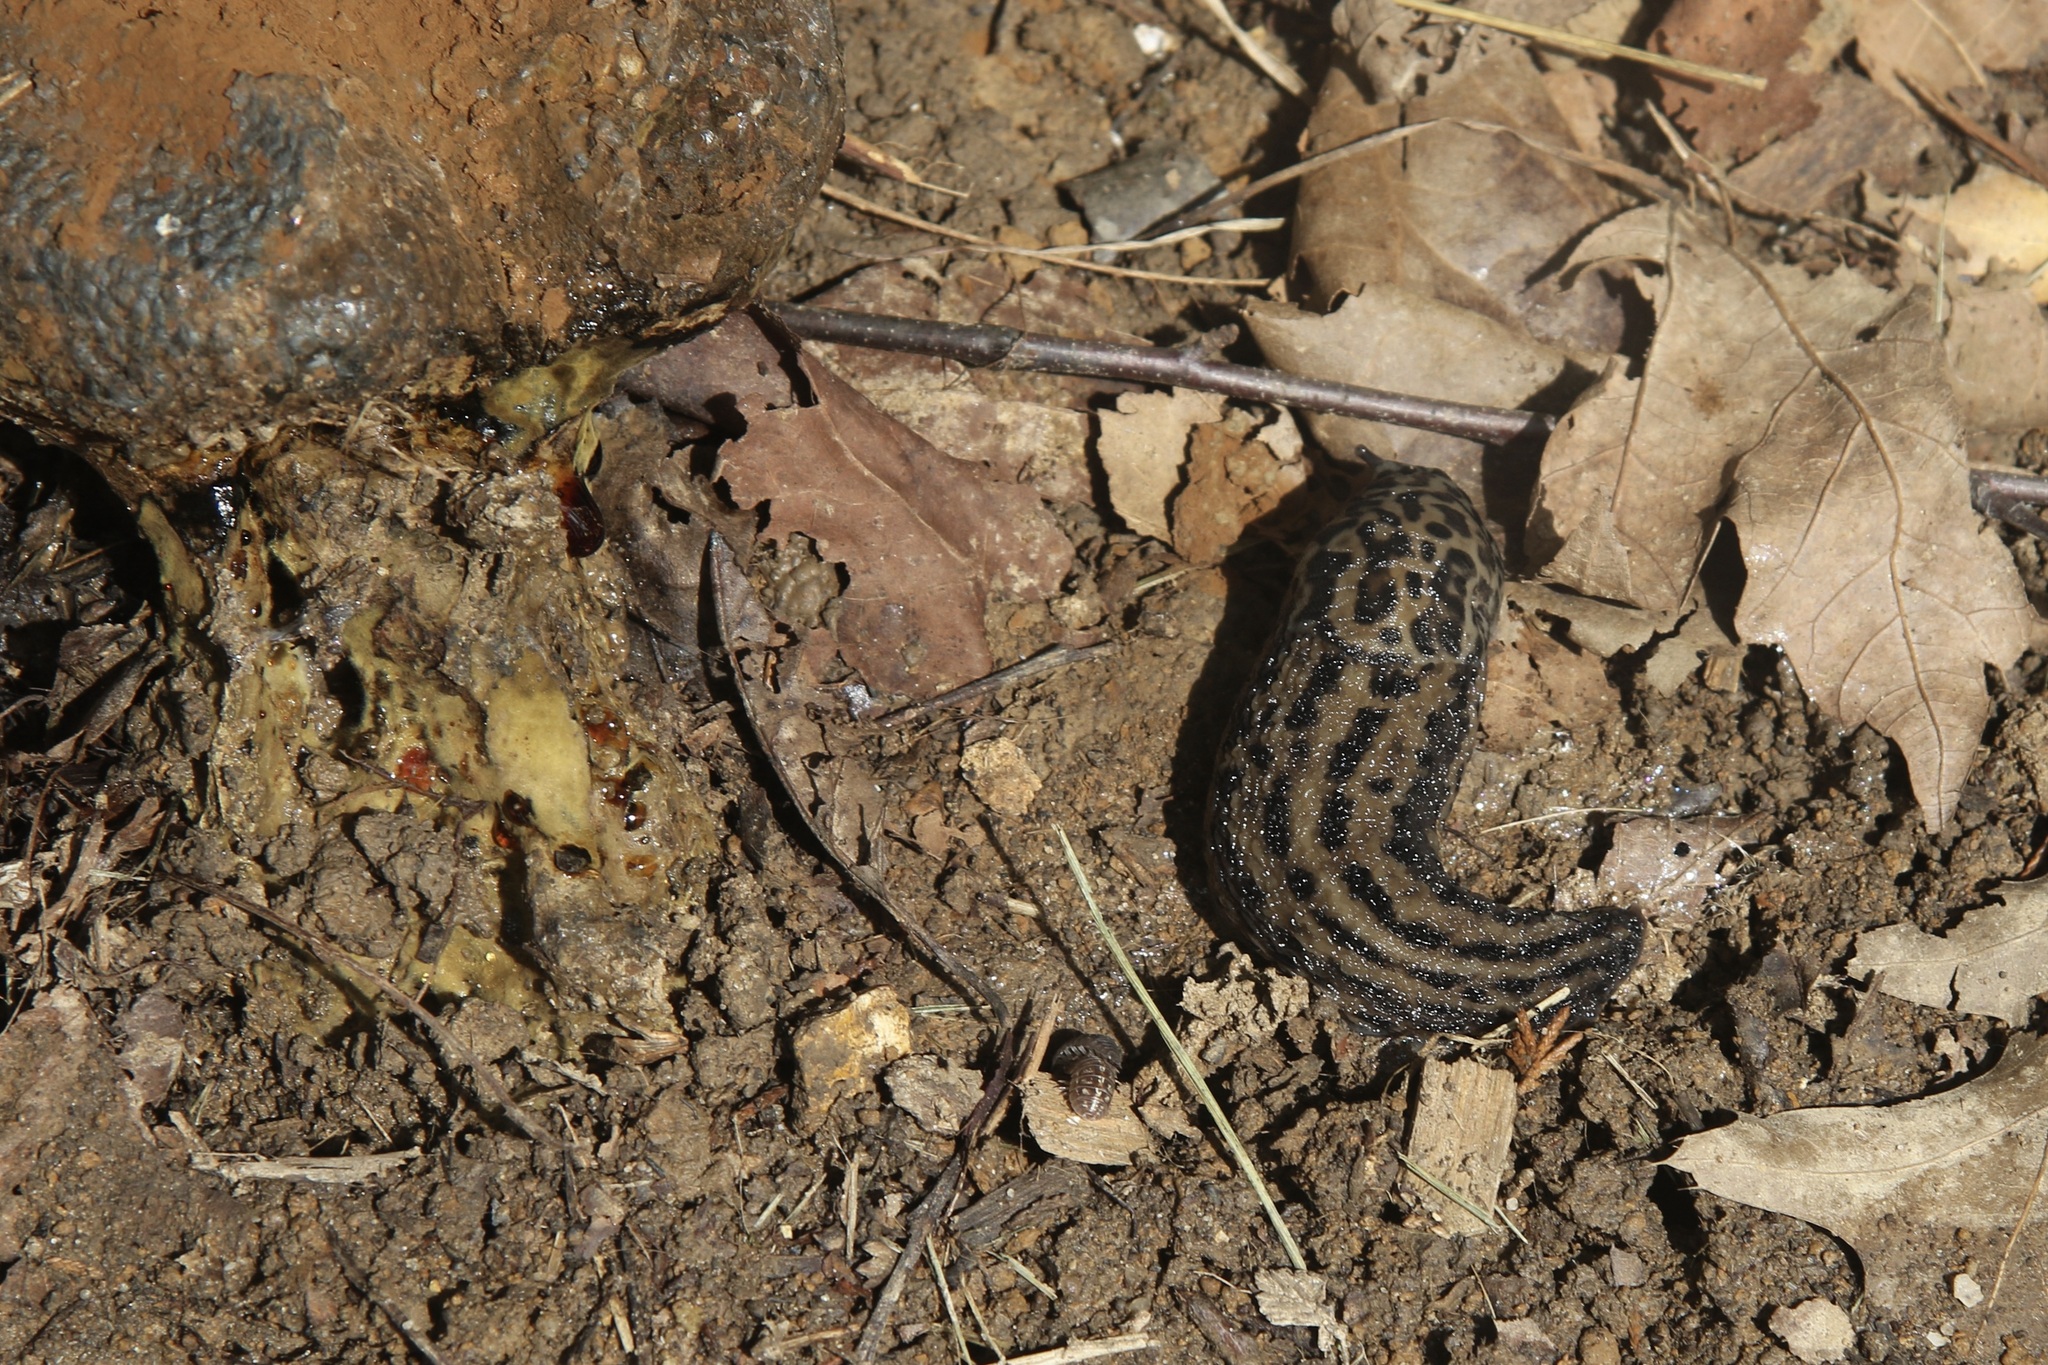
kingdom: Animalia
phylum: Mollusca
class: Gastropoda
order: Stylommatophora
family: Limacidae
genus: Limax
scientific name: Limax maximus
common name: Great grey slug
